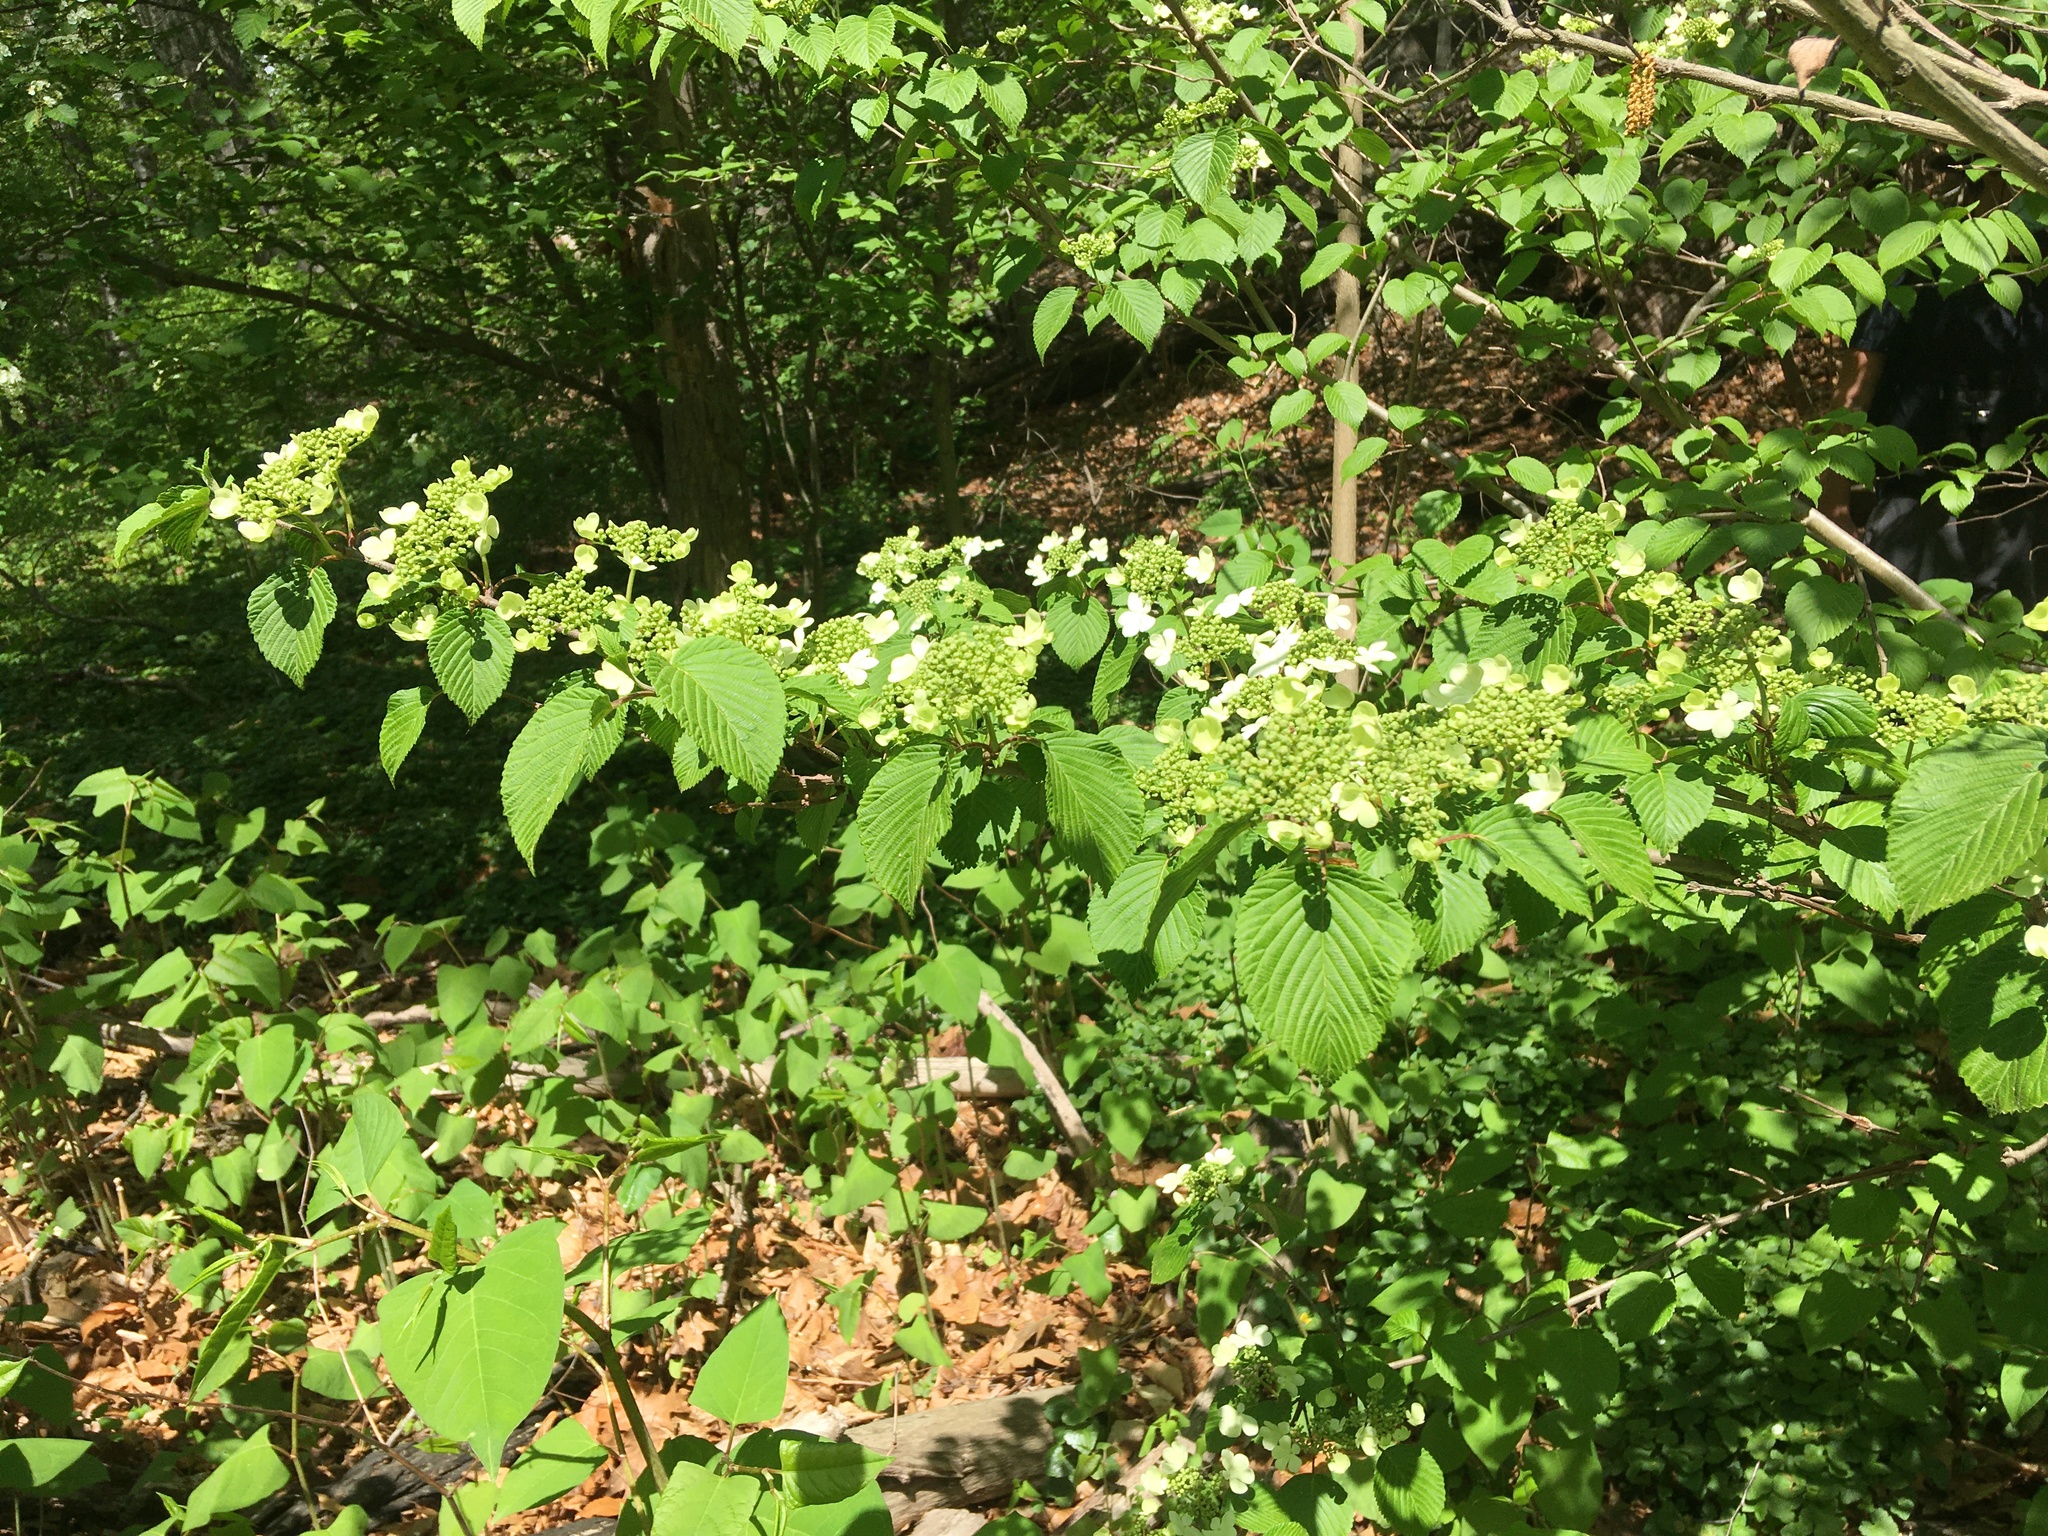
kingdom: Plantae
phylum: Tracheophyta
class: Magnoliopsida
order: Dipsacales
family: Viburnaceae
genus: Viburnum
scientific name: Viburnum plicatum
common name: Japanese snowball
